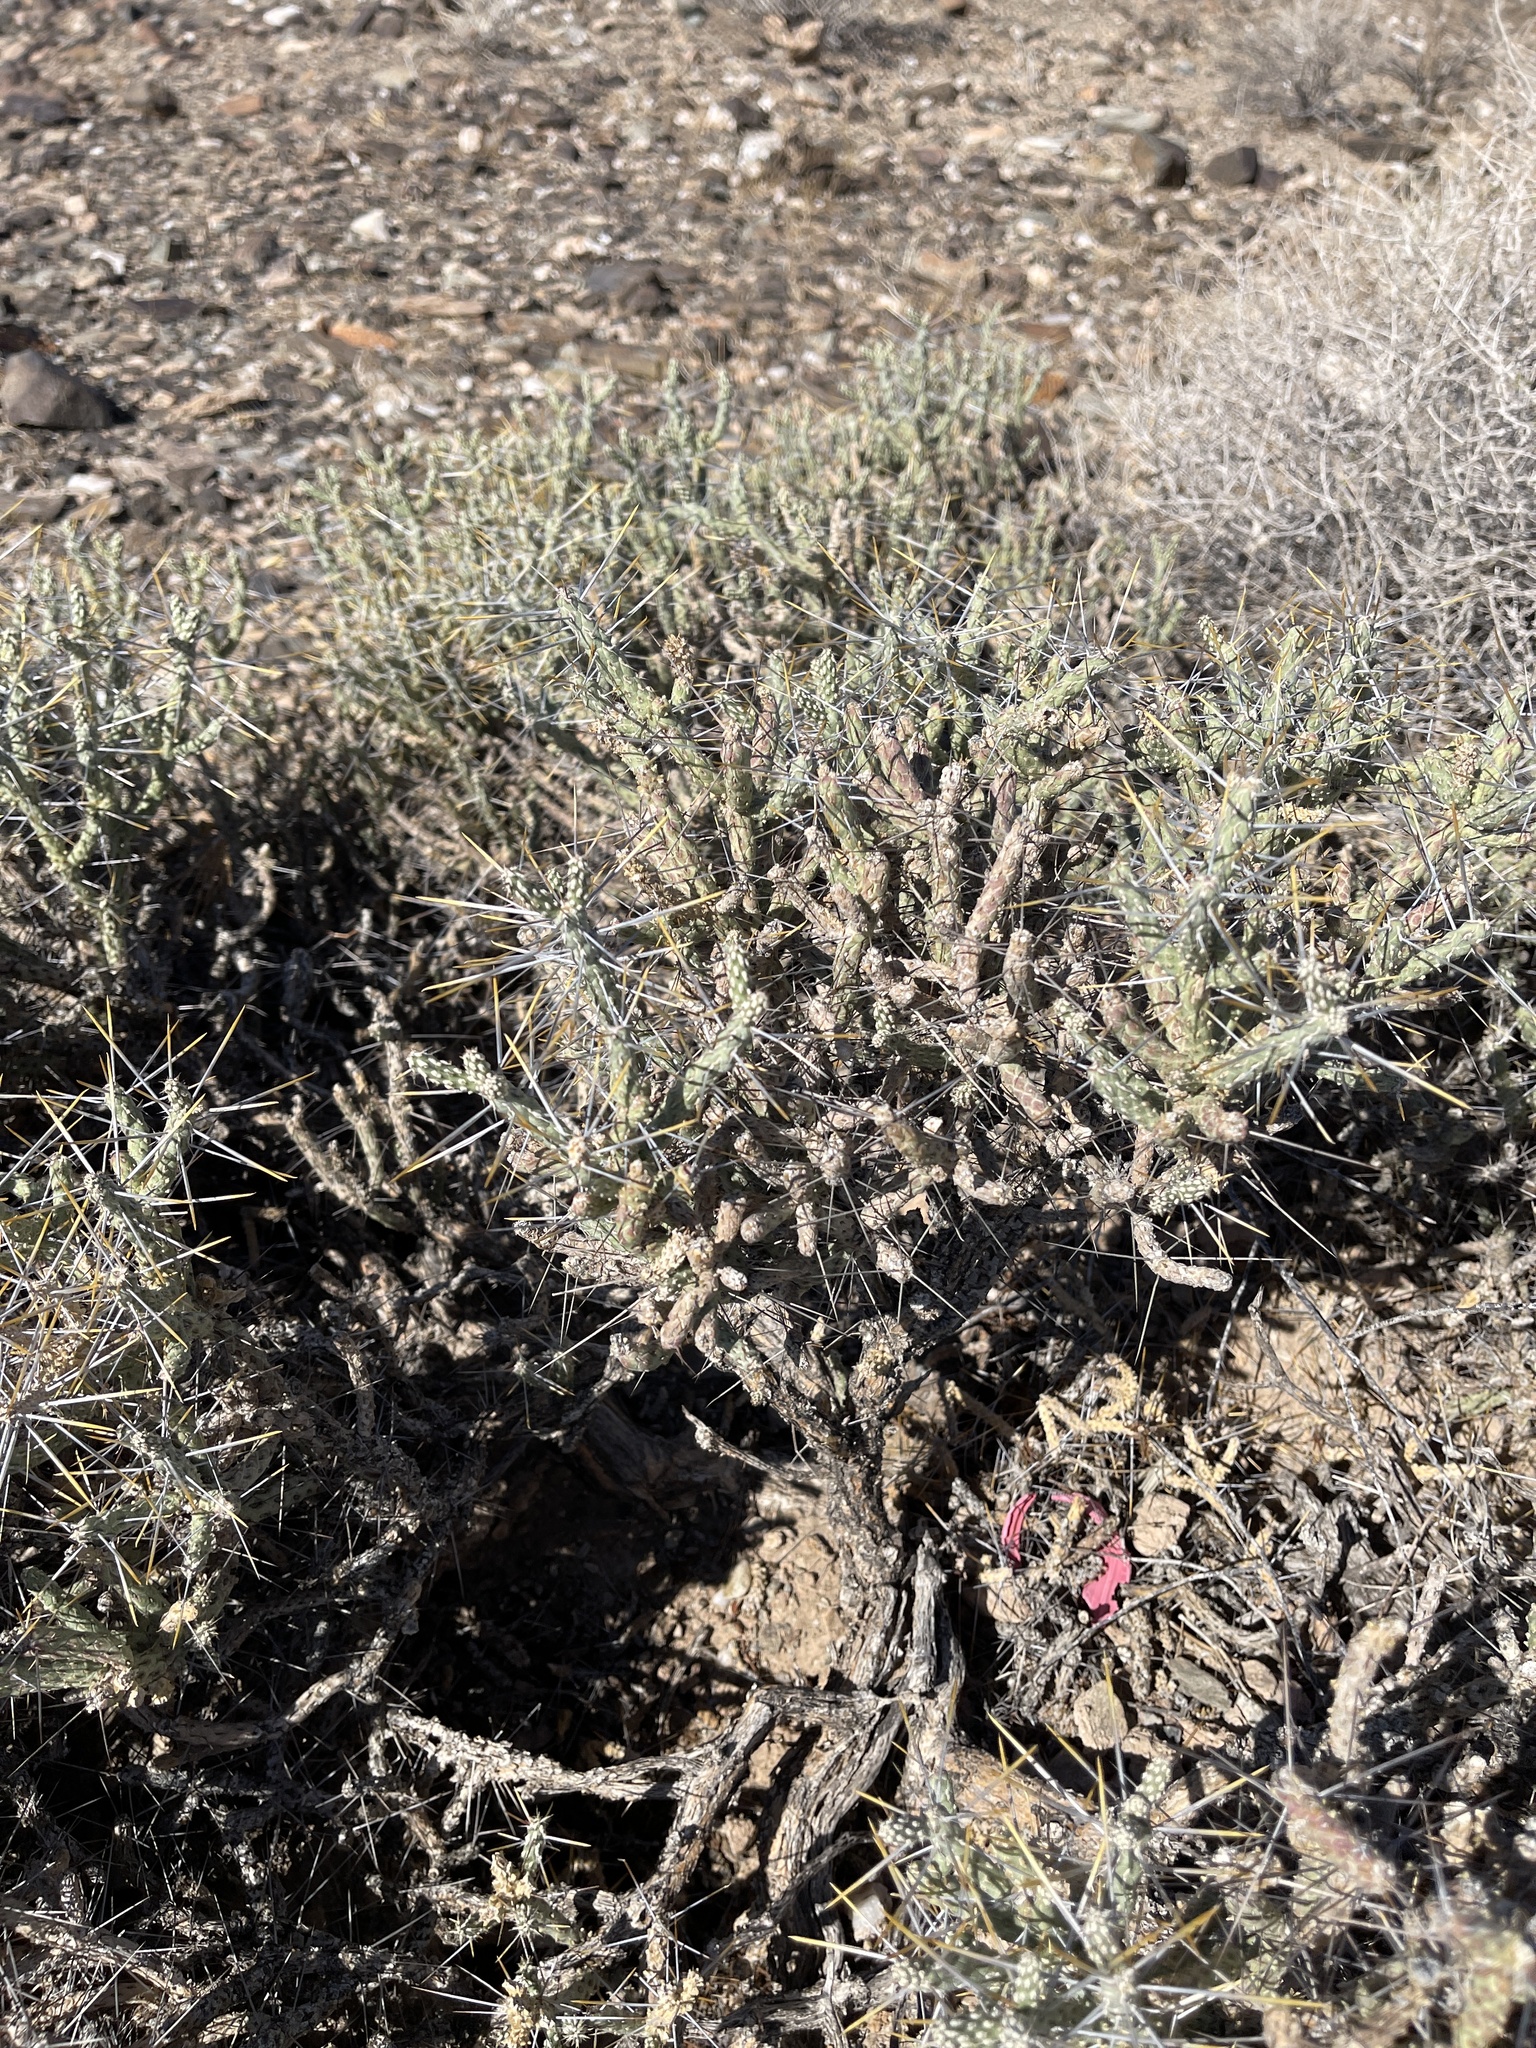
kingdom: Plantae
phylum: Tracheophyta
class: Magnoliopsida
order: Caryophyllales
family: Cactaceae
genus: Cylindropuntia
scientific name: Cylindropuntia ramosissima
